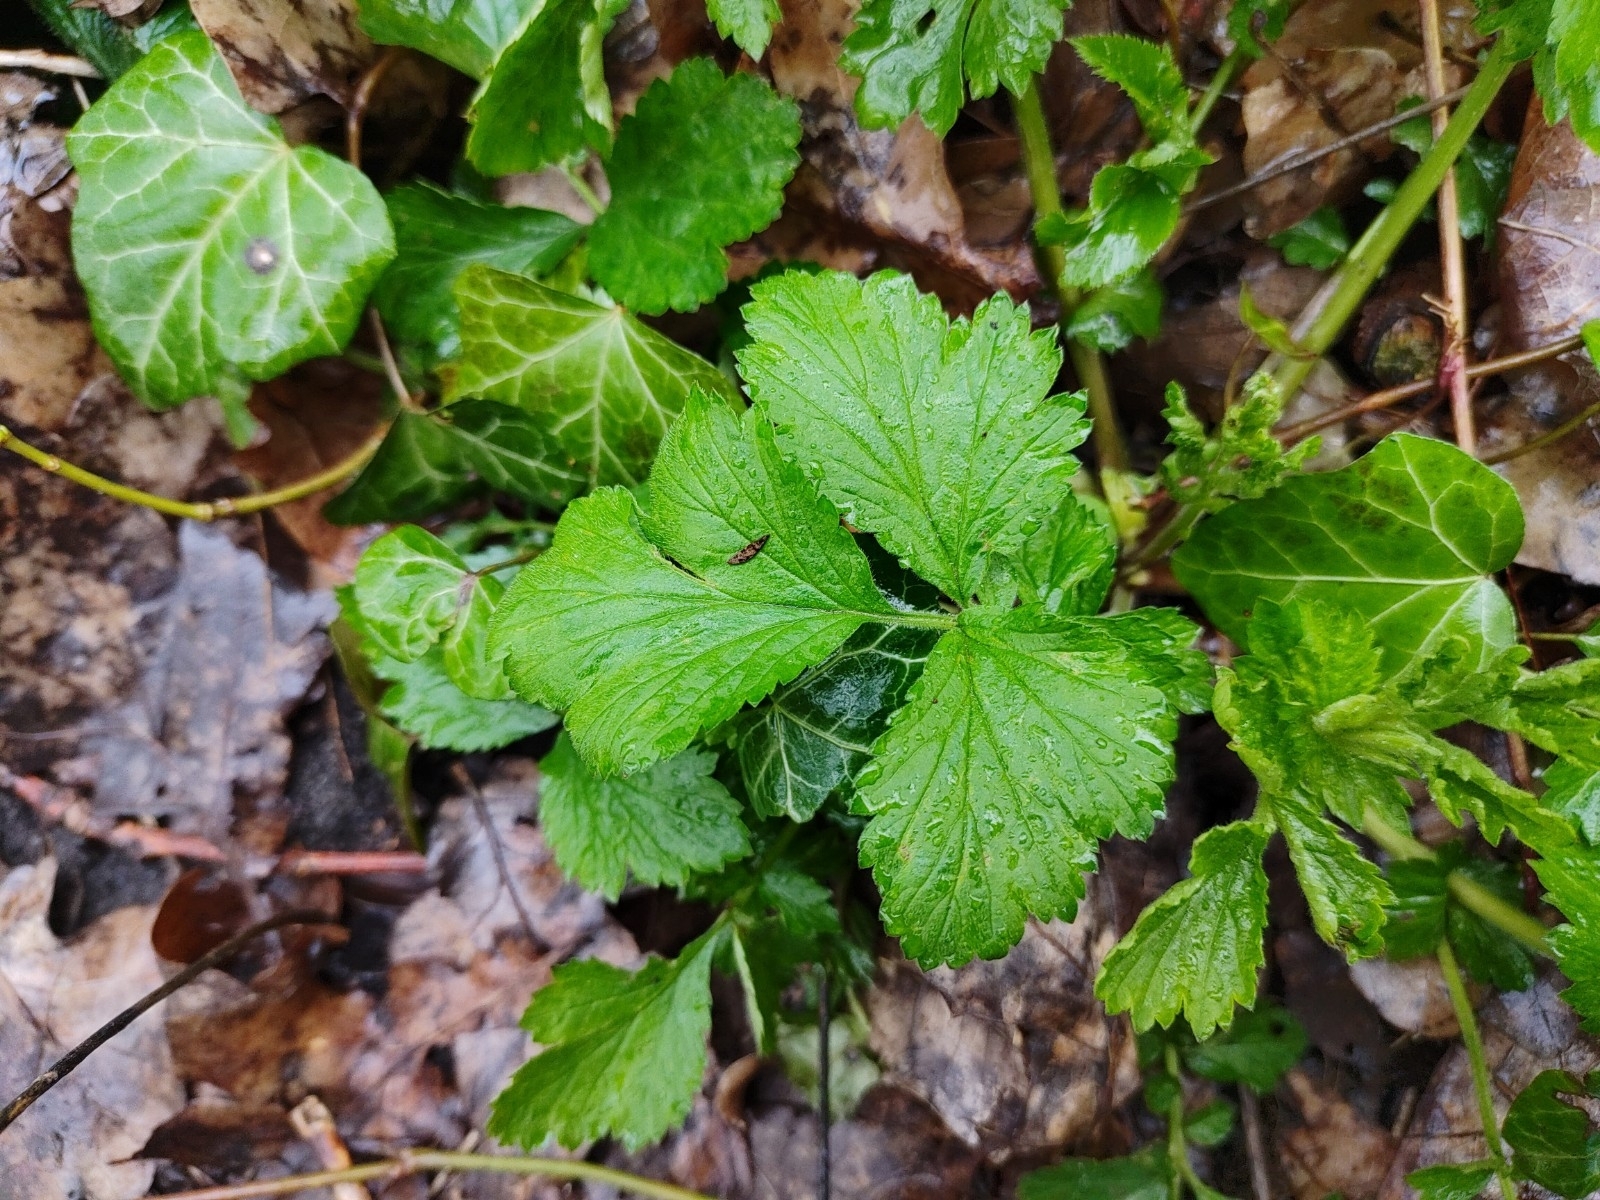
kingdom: Plantae
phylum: Tracheophyta
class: Magnoliopsida
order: Rosales
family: Rosaceae
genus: Geum
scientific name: Geum urbanum
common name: Wood avens
